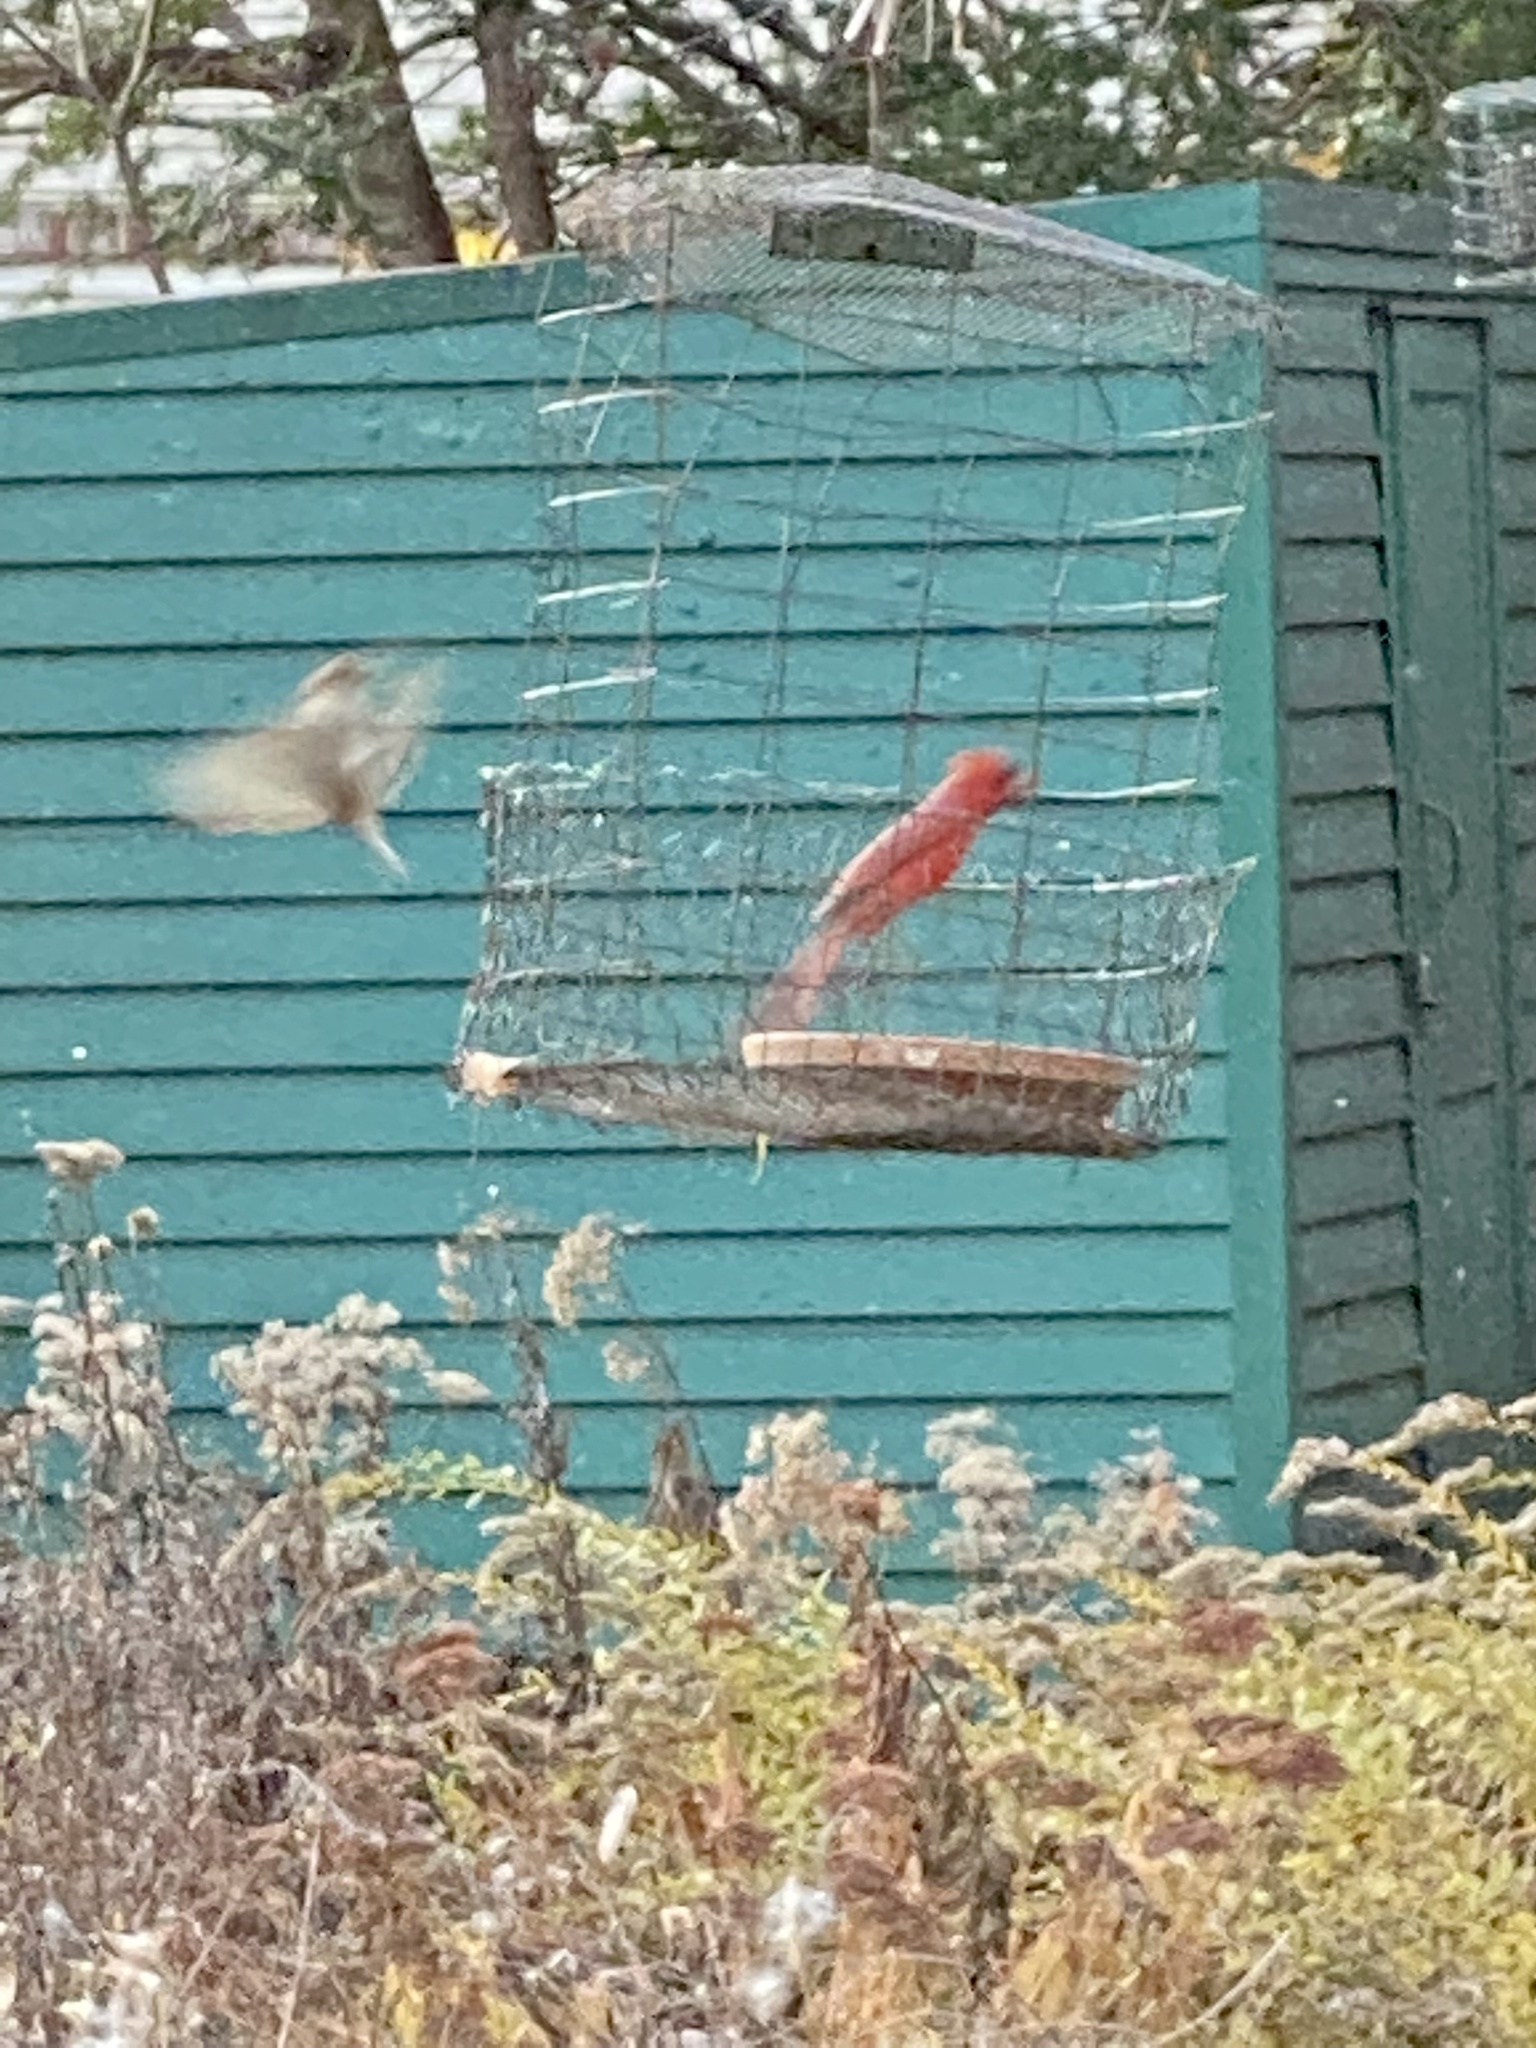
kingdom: Animalia
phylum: Chordata
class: Aves
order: Passeriformes
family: Cardinalidae
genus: Cardinalis
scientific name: Cardinalis cardinalis
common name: Northern cardinal
